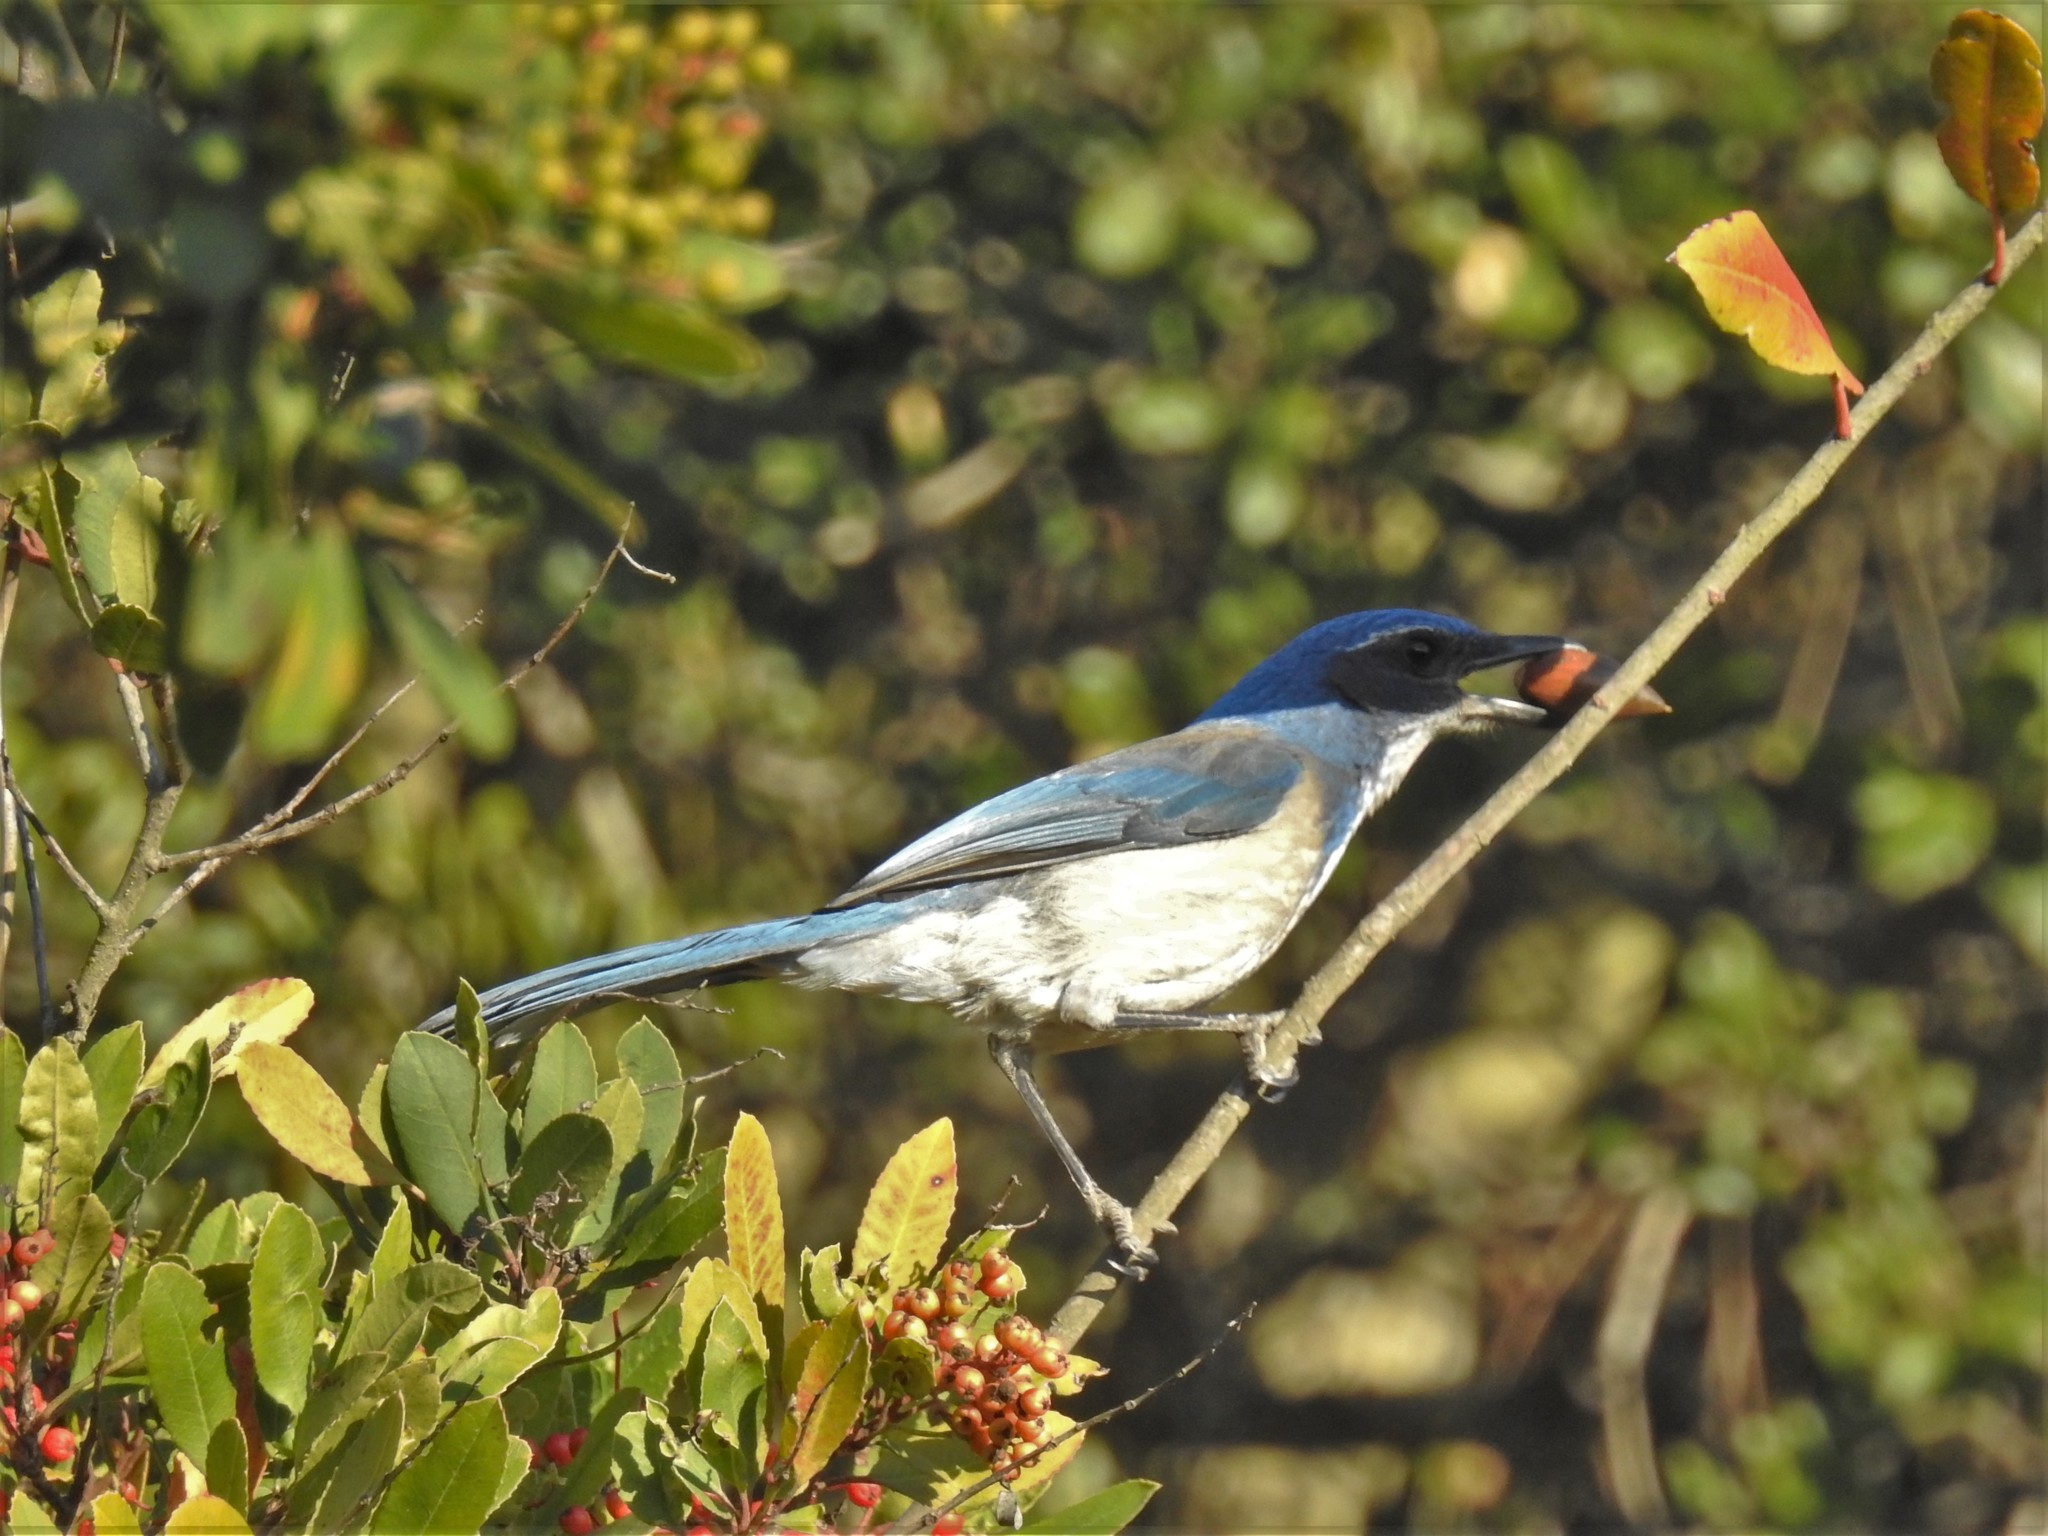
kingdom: Animalia
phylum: Chordata
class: Aves
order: Passeriformes
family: Corvidae
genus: Aphelocoma
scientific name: Aphelocoma californica
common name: California scrub-jay
